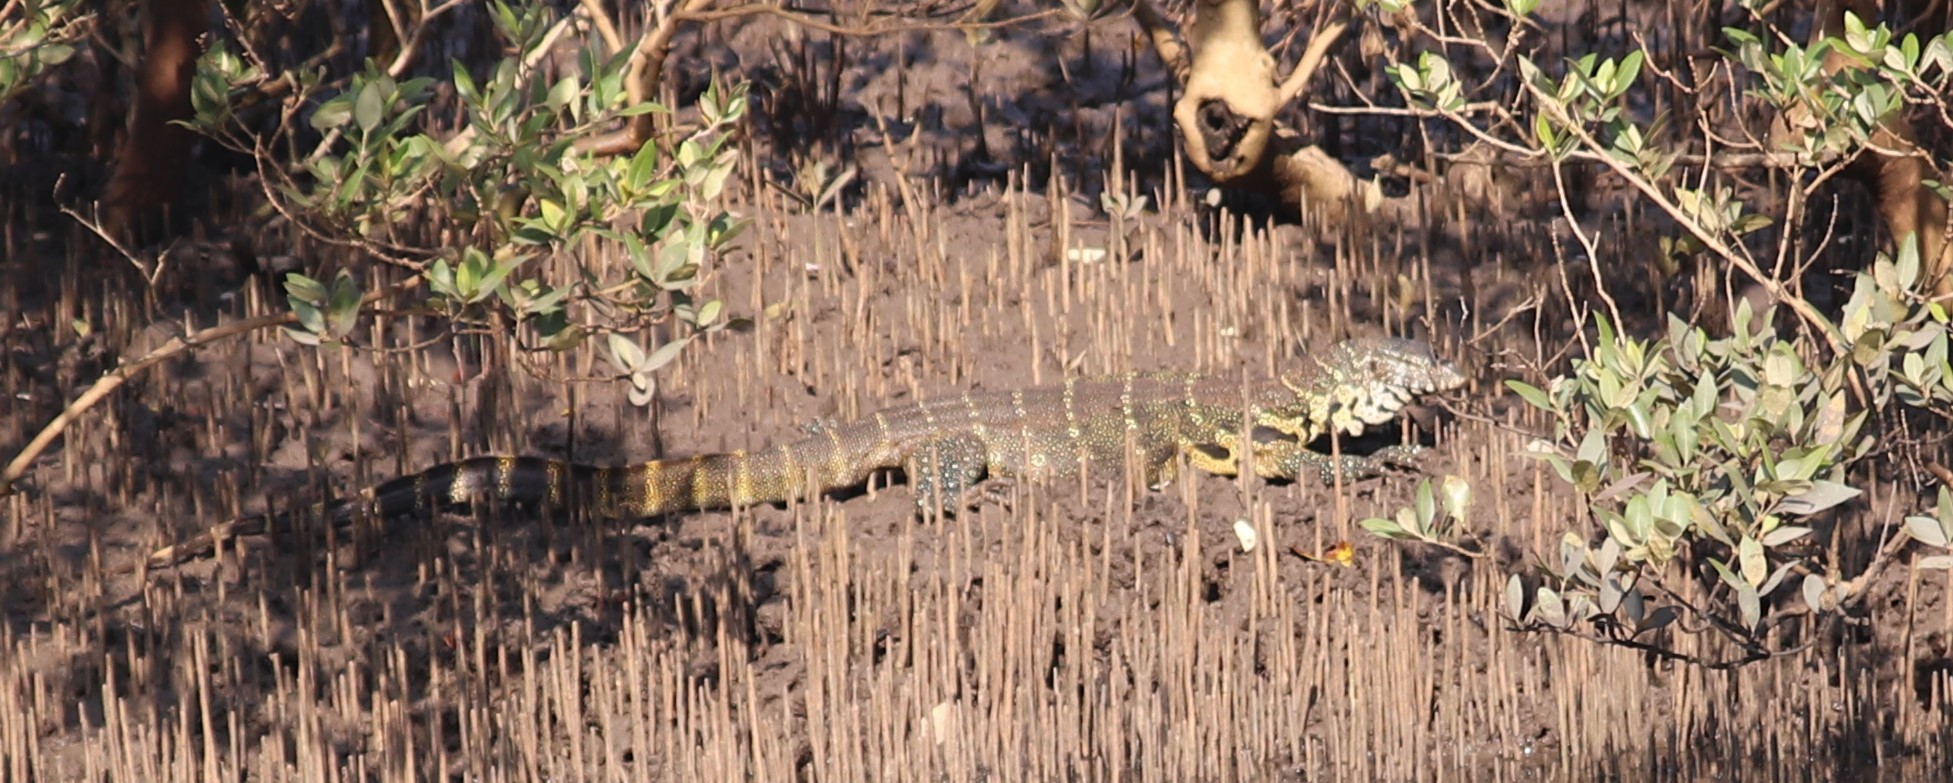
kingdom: Animalia
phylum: Chordata
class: Squamata
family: Varanidae
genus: Varanus
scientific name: Varanus niloticus
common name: Nile monitor
